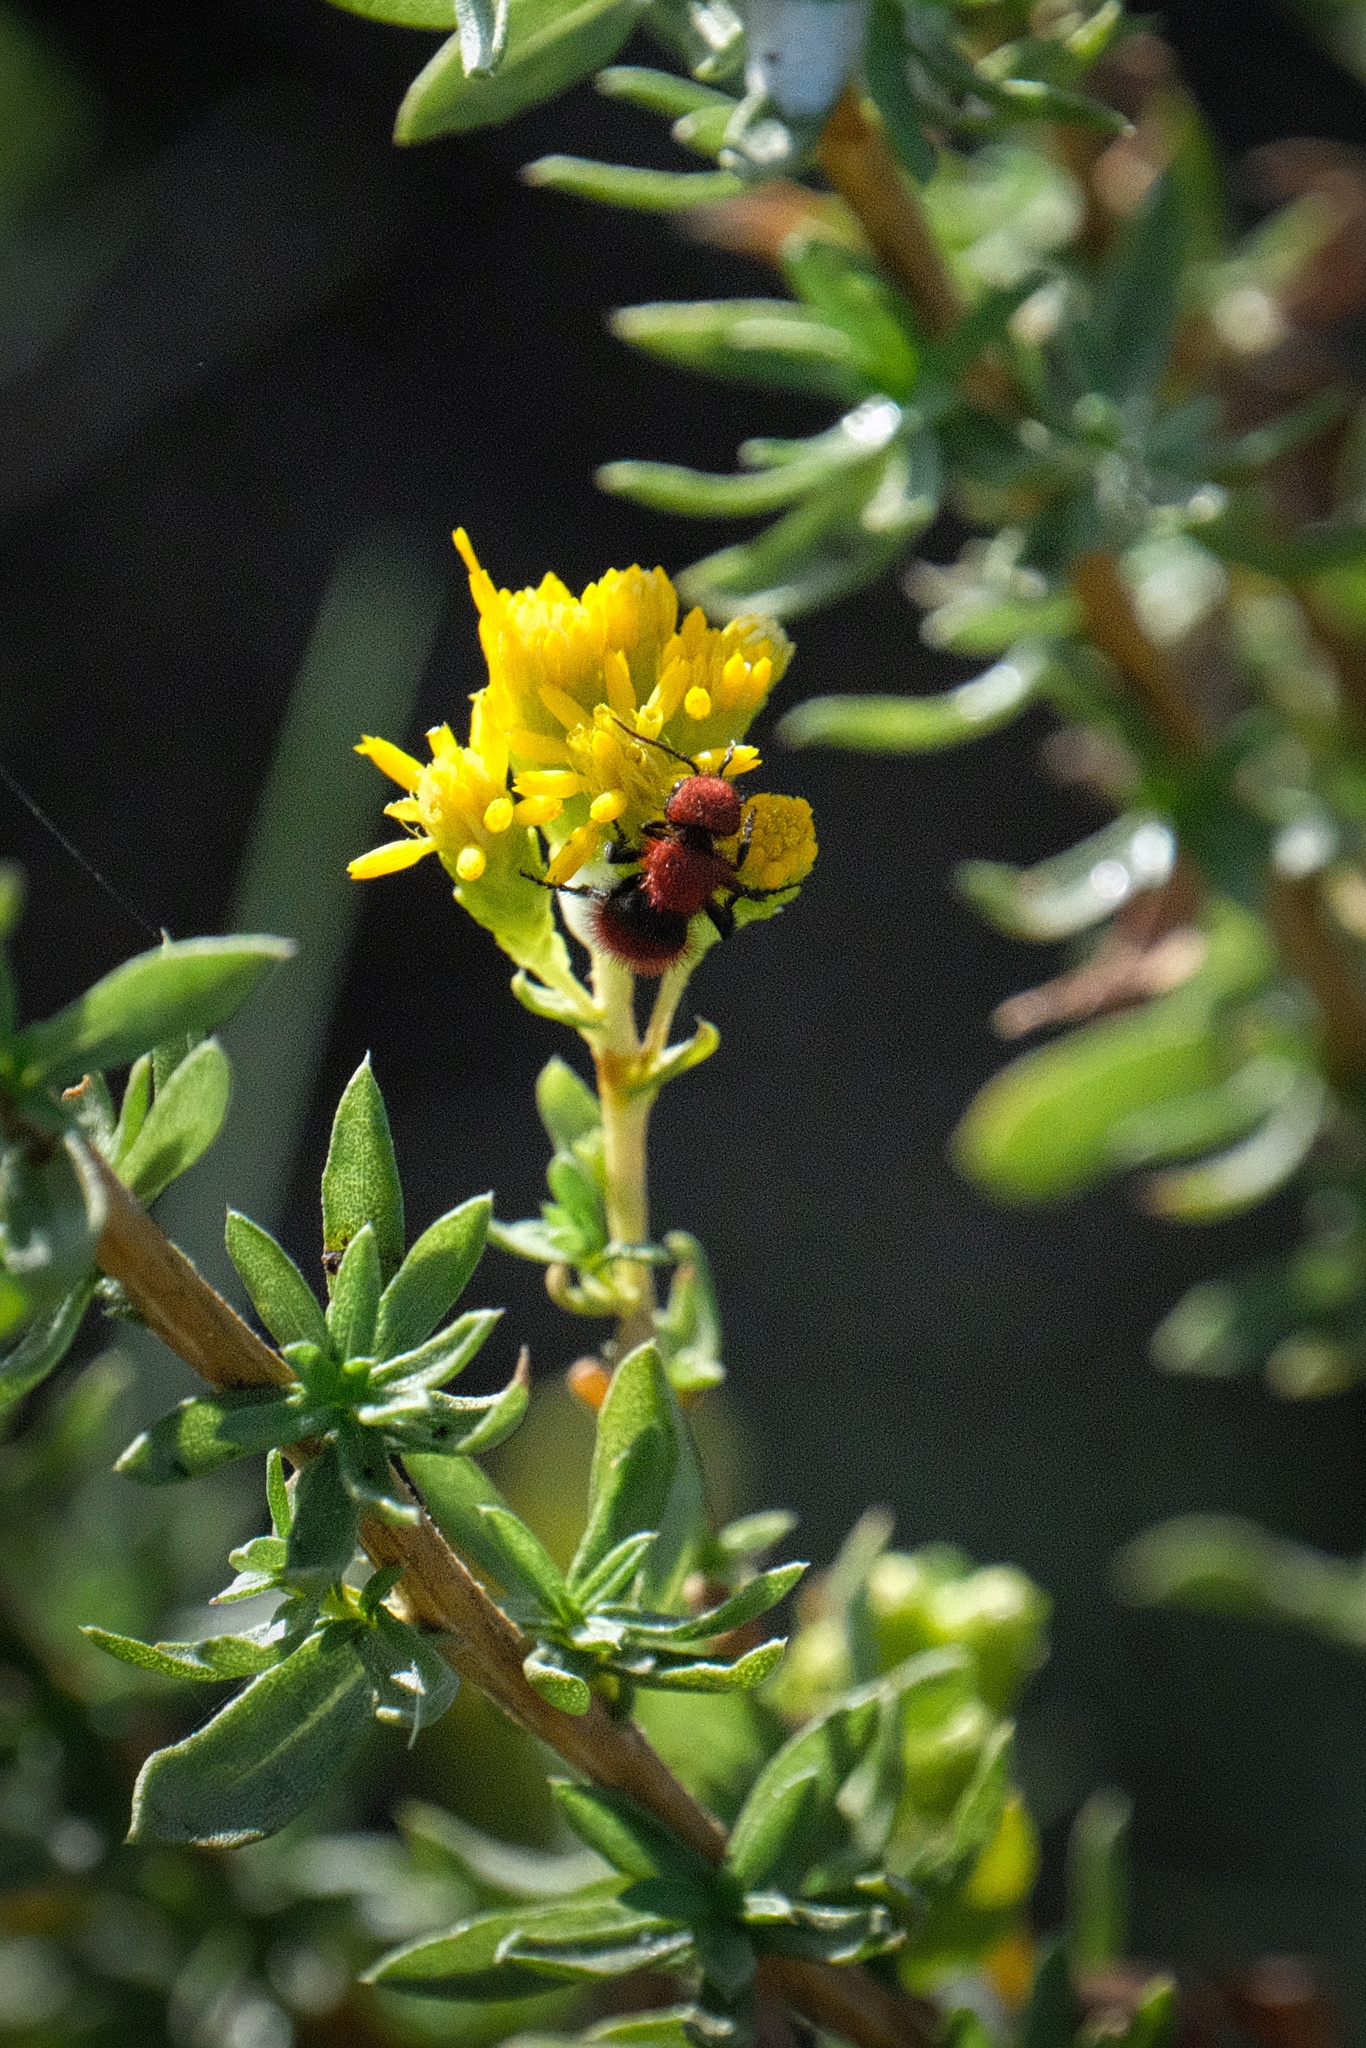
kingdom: Animalia
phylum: Arthropoda
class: Insecta
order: Hymenoptera
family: Mutillidae
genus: Dasymutilla
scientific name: Dasymutilla
